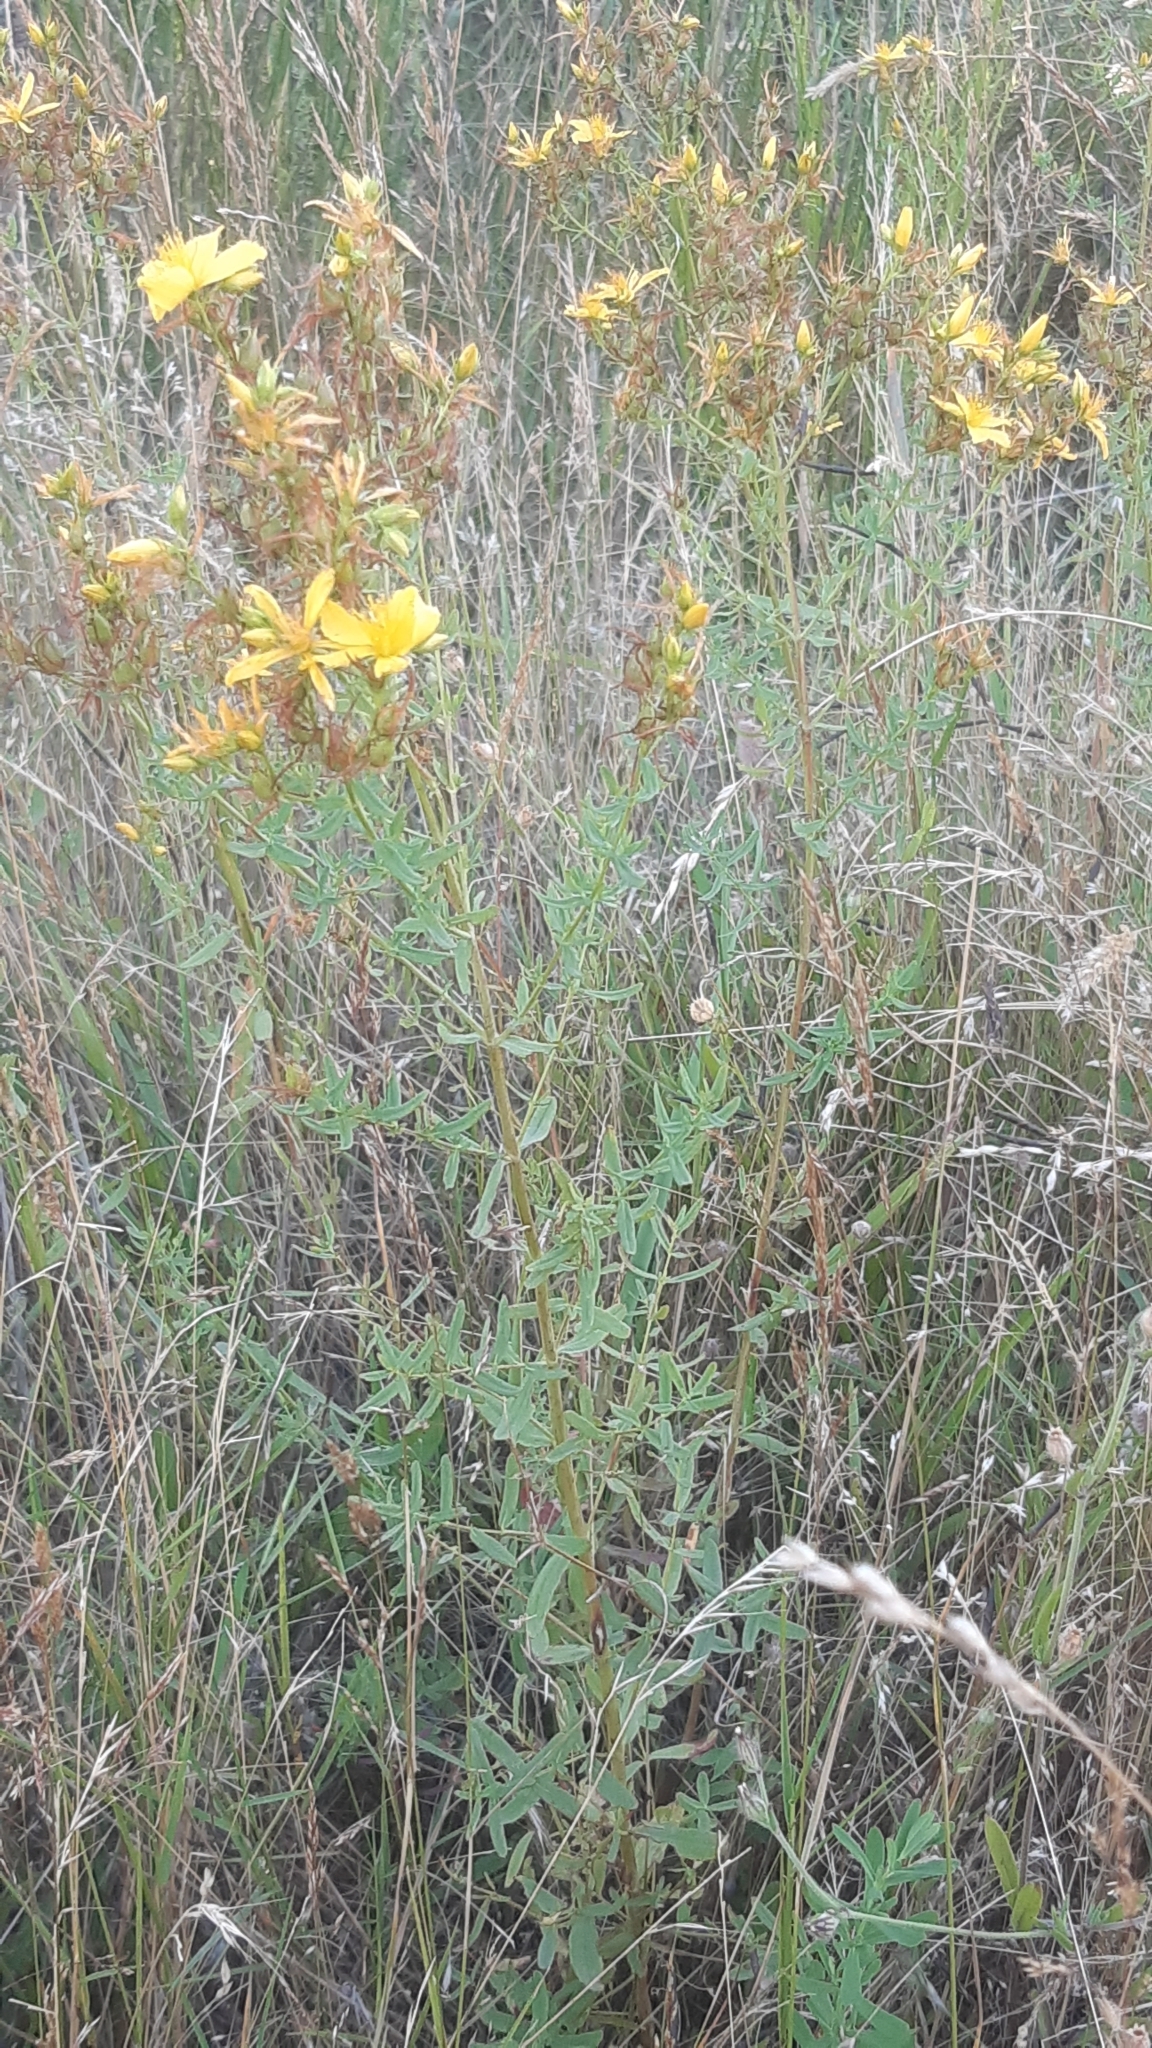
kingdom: Plantae
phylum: Tracheophyta
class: Magnoliopsida
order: Malpighiales
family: Hypericaceae
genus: Hypericum
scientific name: Hypericum perforatum
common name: Common st. johnswort
